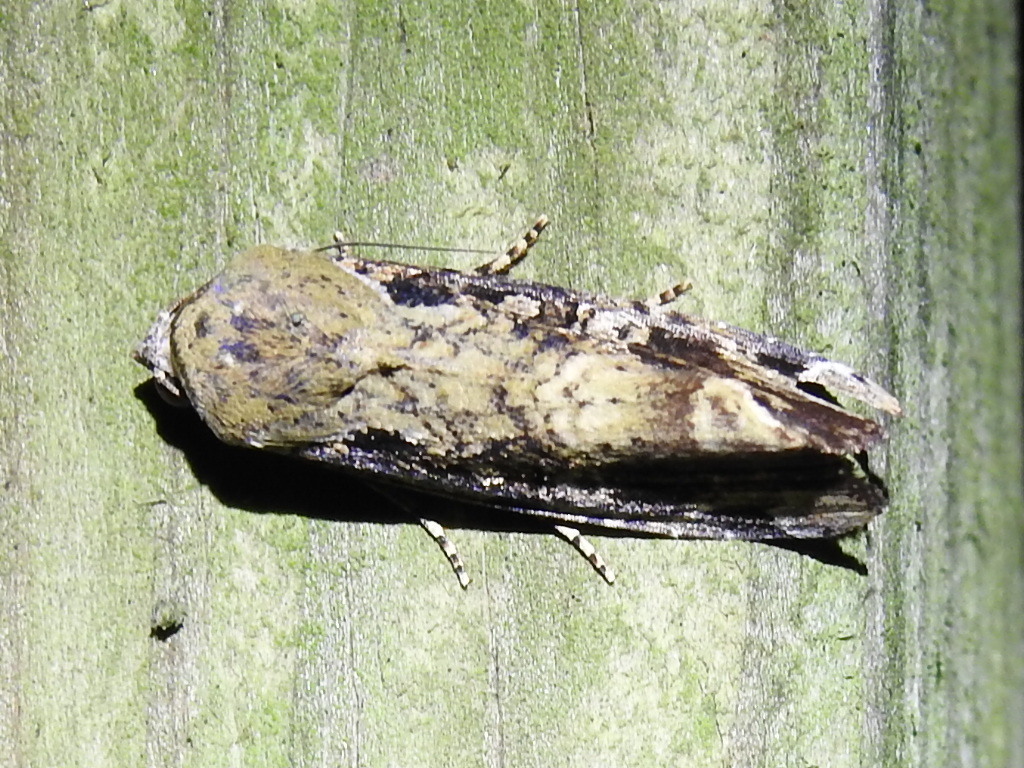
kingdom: Animalia
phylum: Arthropoda
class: Insecta
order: Lepidoptera
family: Noctuidae
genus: Magusa
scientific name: Magusa divaricata
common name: Orb narrow-winged moth
